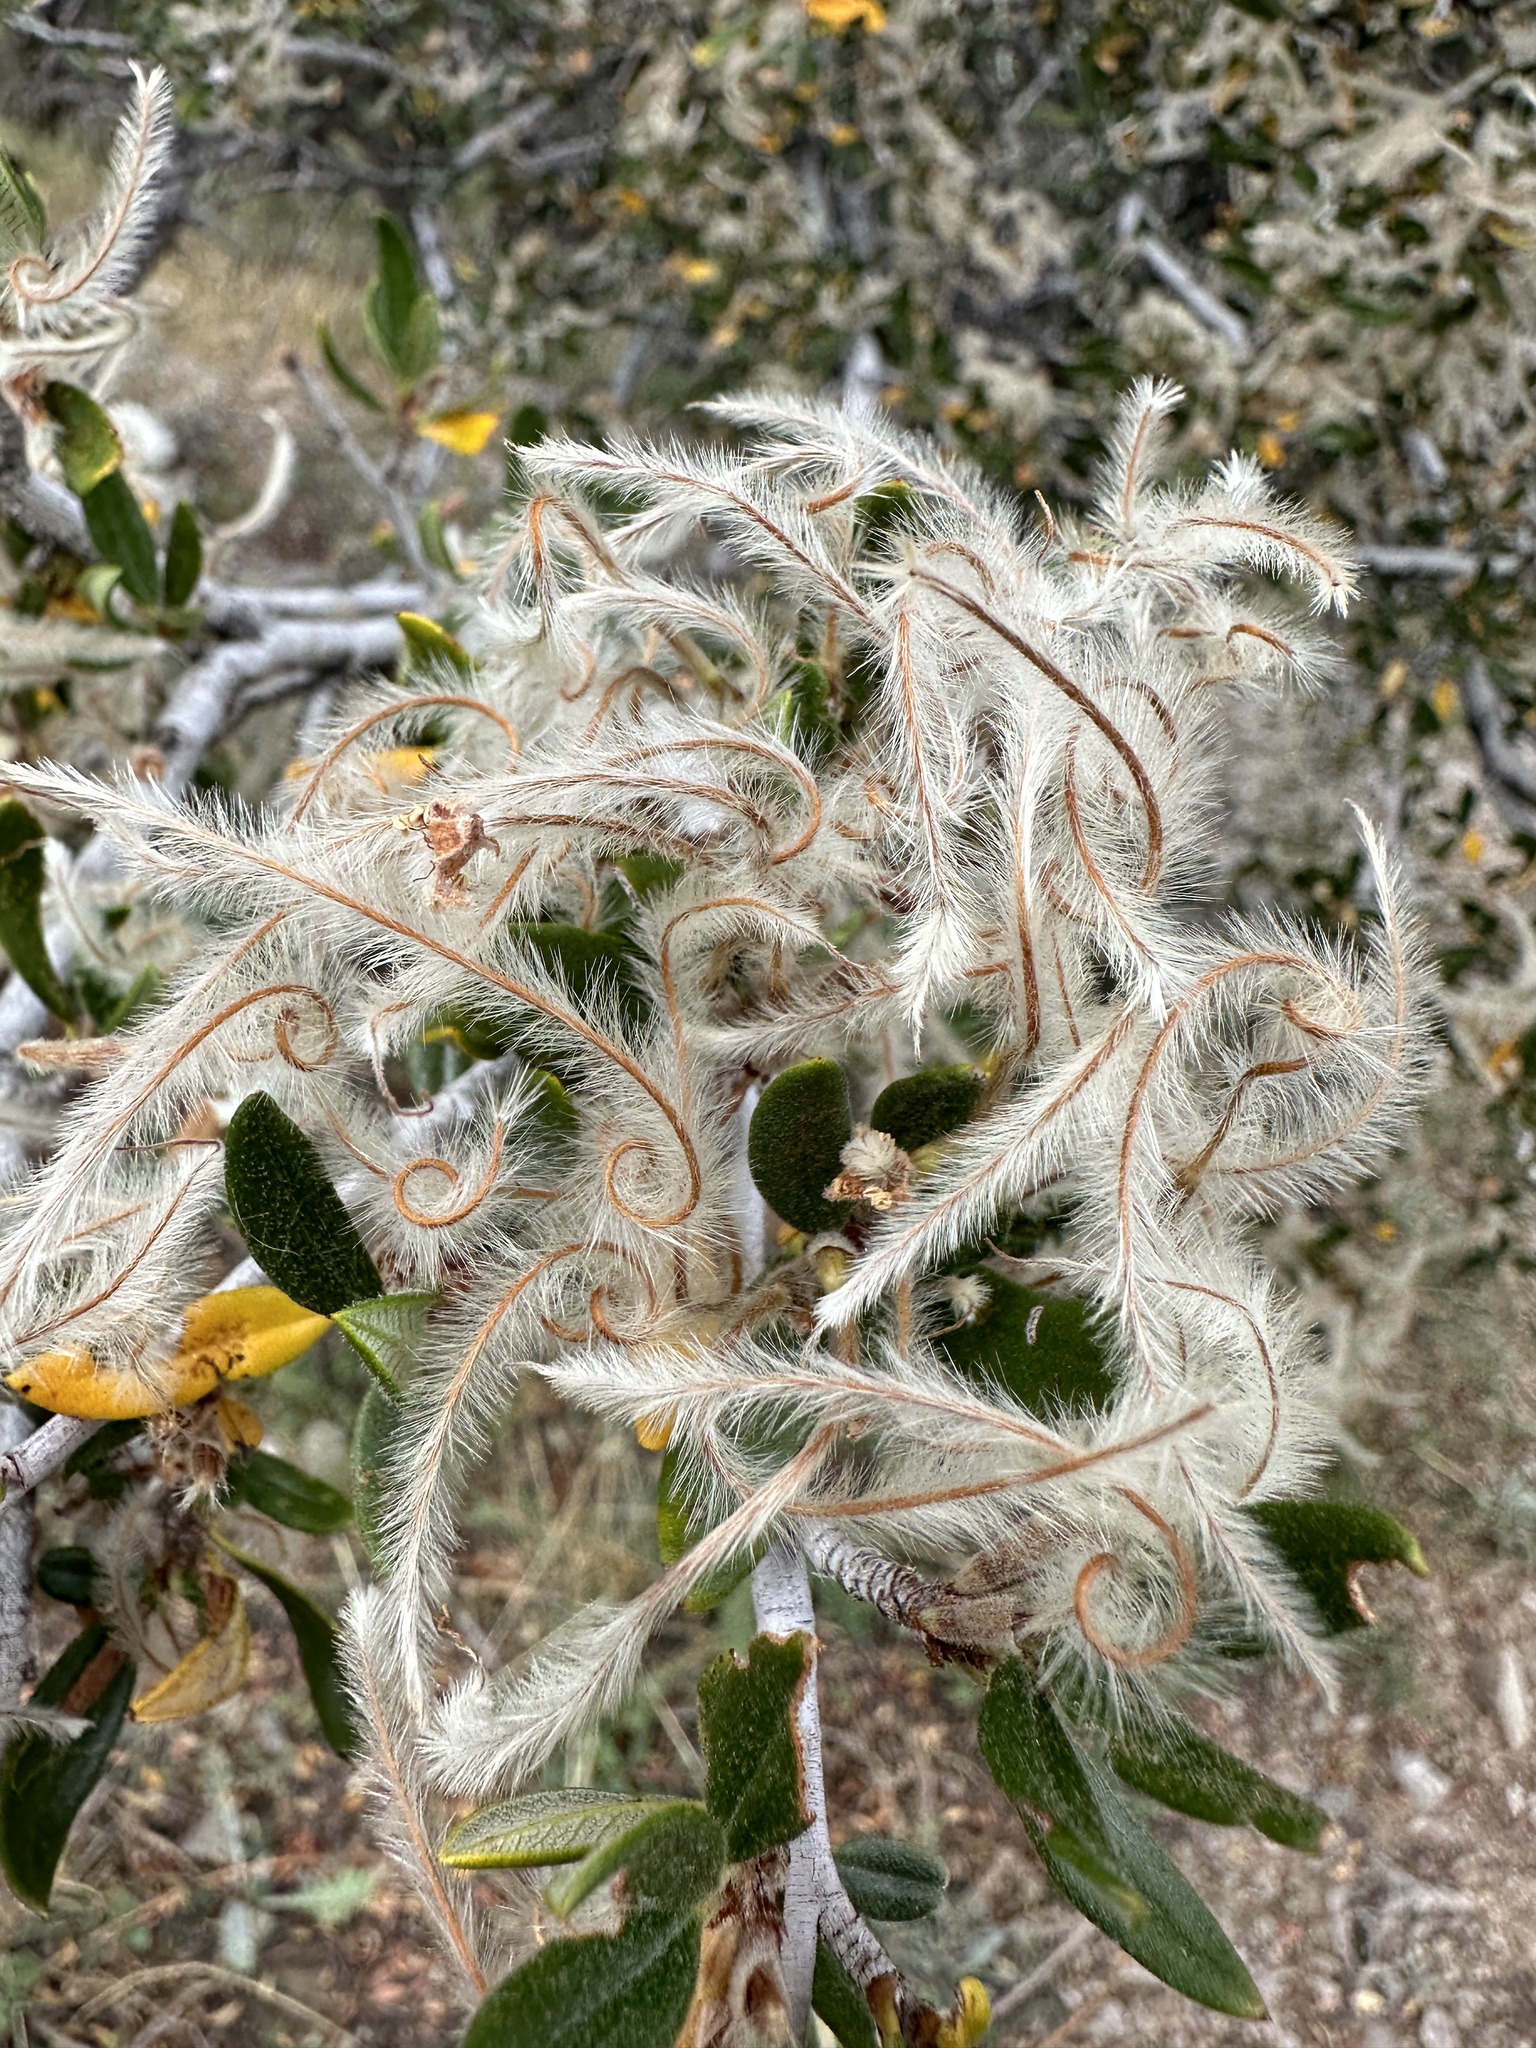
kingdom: Plantae
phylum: Tracheophyta
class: Magnoliopsida
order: Rosales
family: Rosaceae
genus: Cercocarpus
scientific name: Cercocarpus ledifolius
